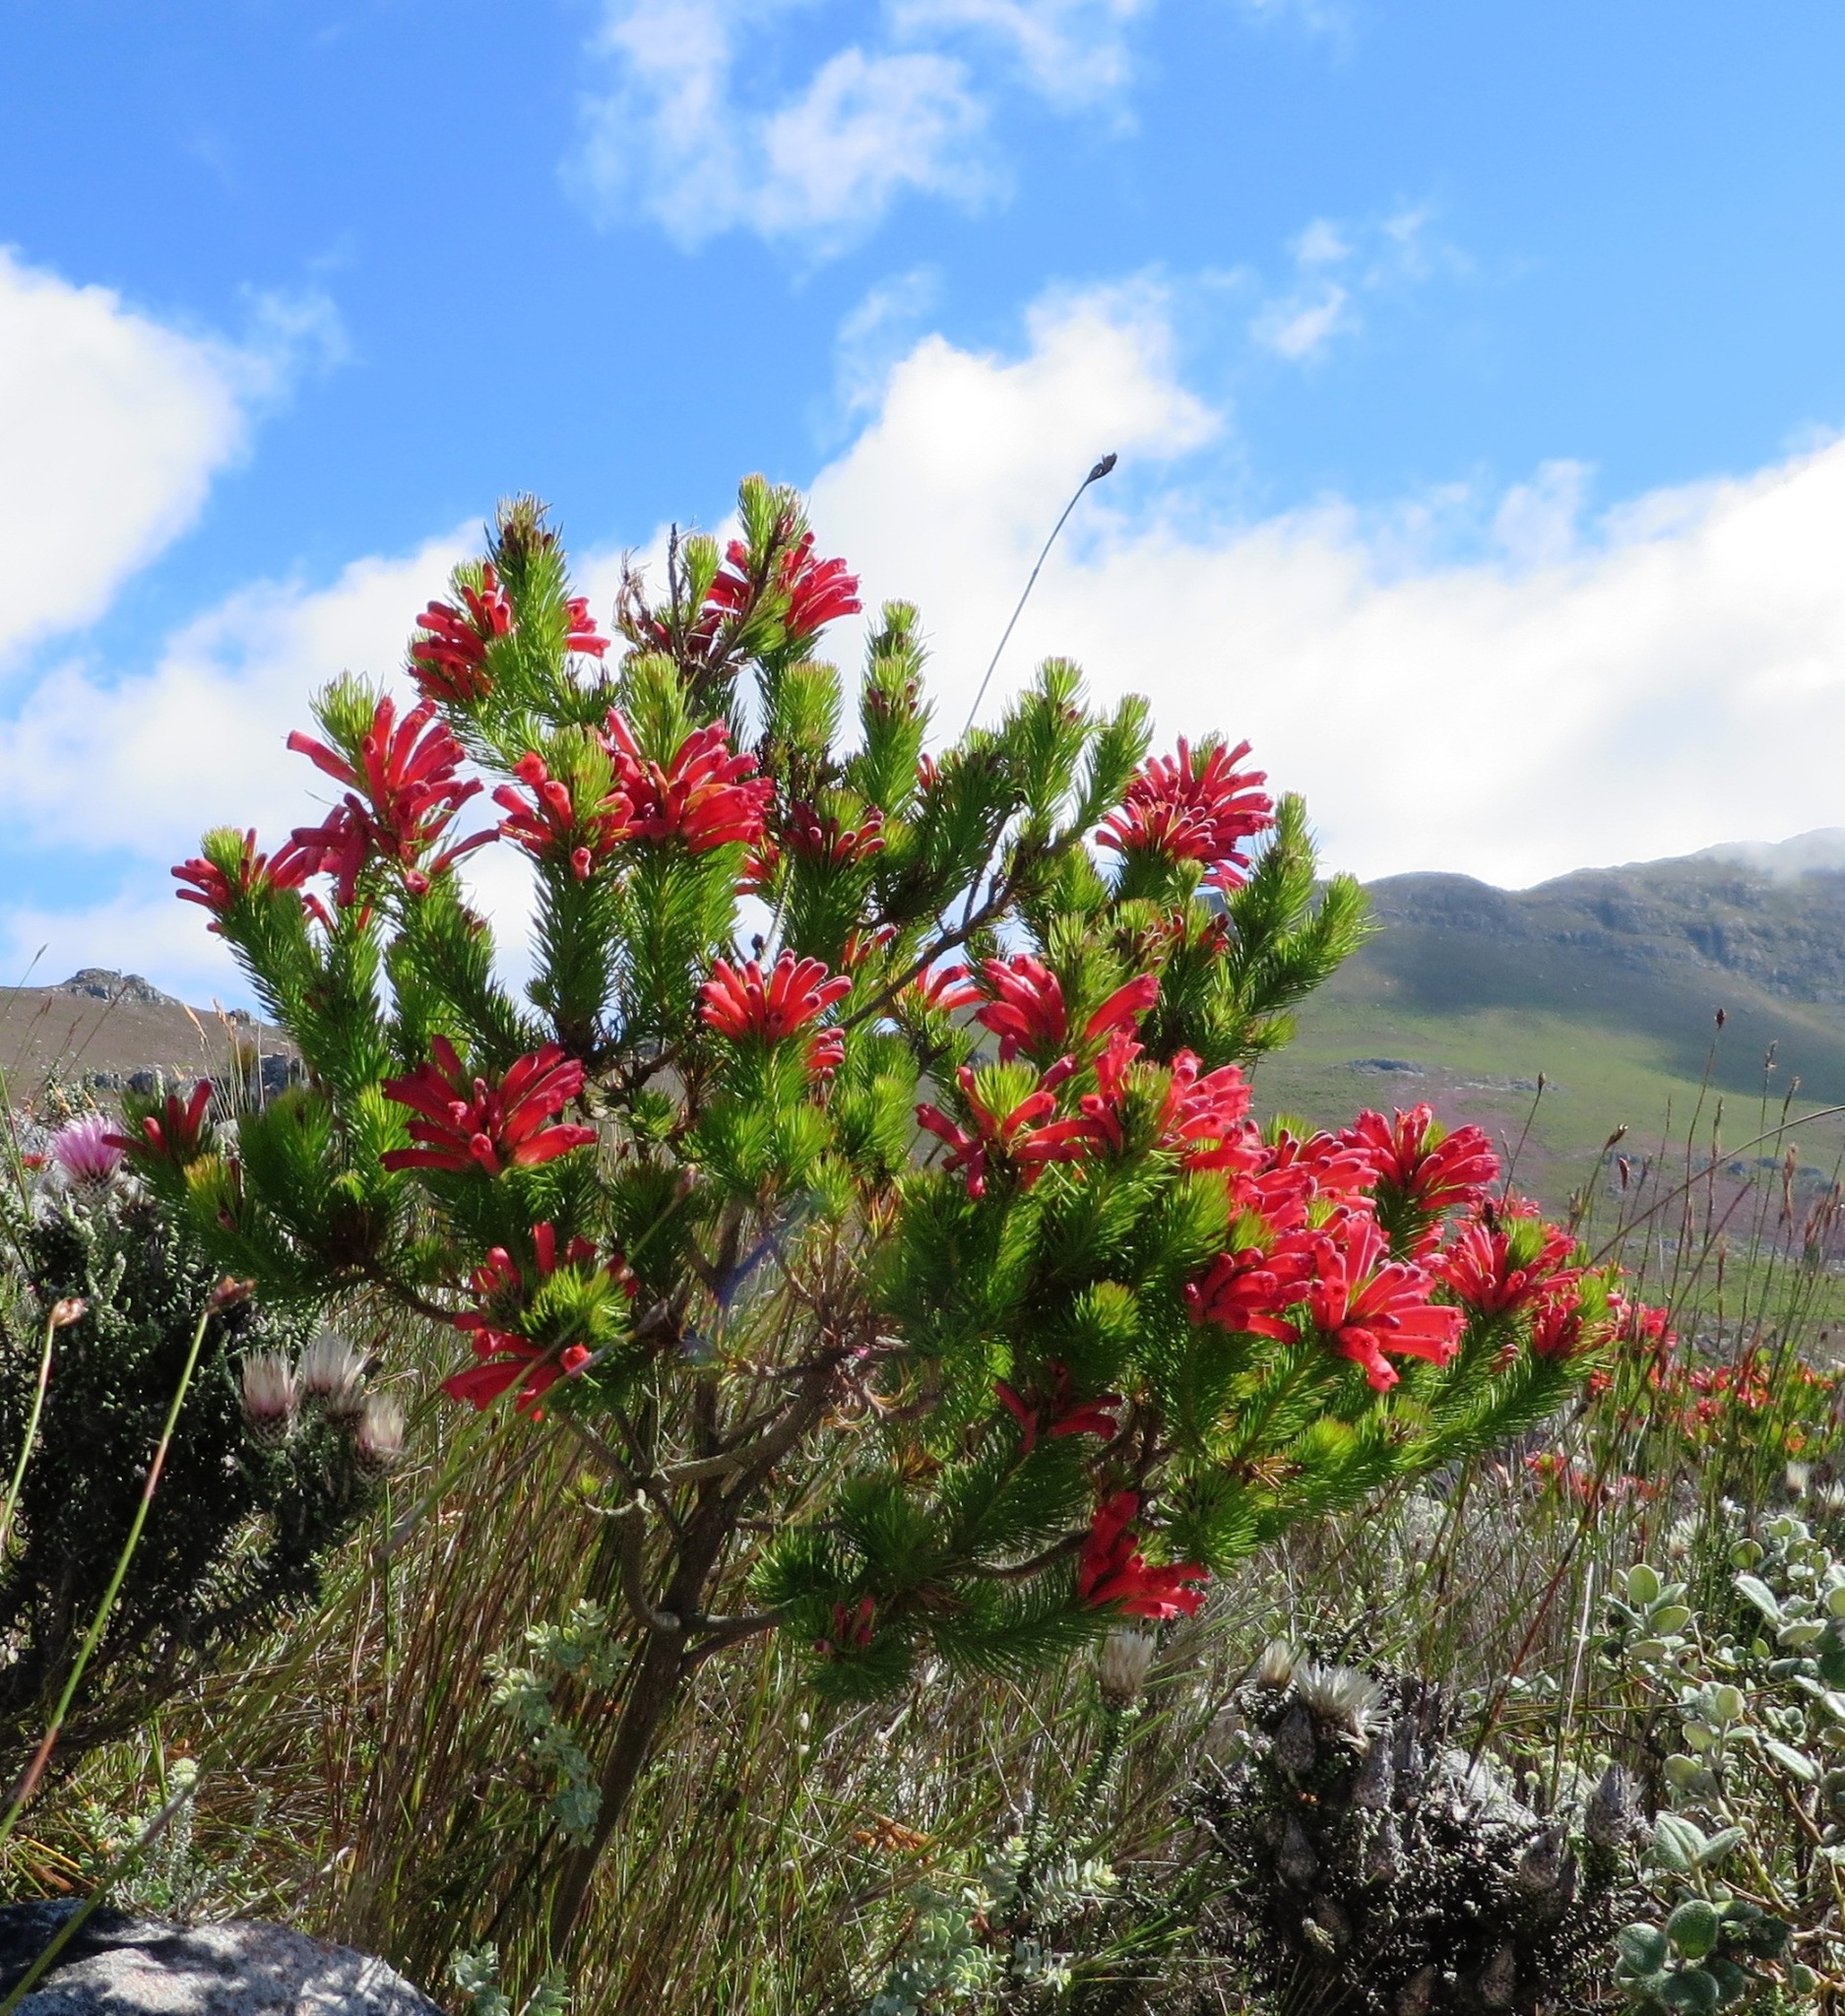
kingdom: Plantae
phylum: Tracheophyta
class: Magnoliopsida
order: Ericales
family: Ericaceae
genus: Erica
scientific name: Erica vestita
